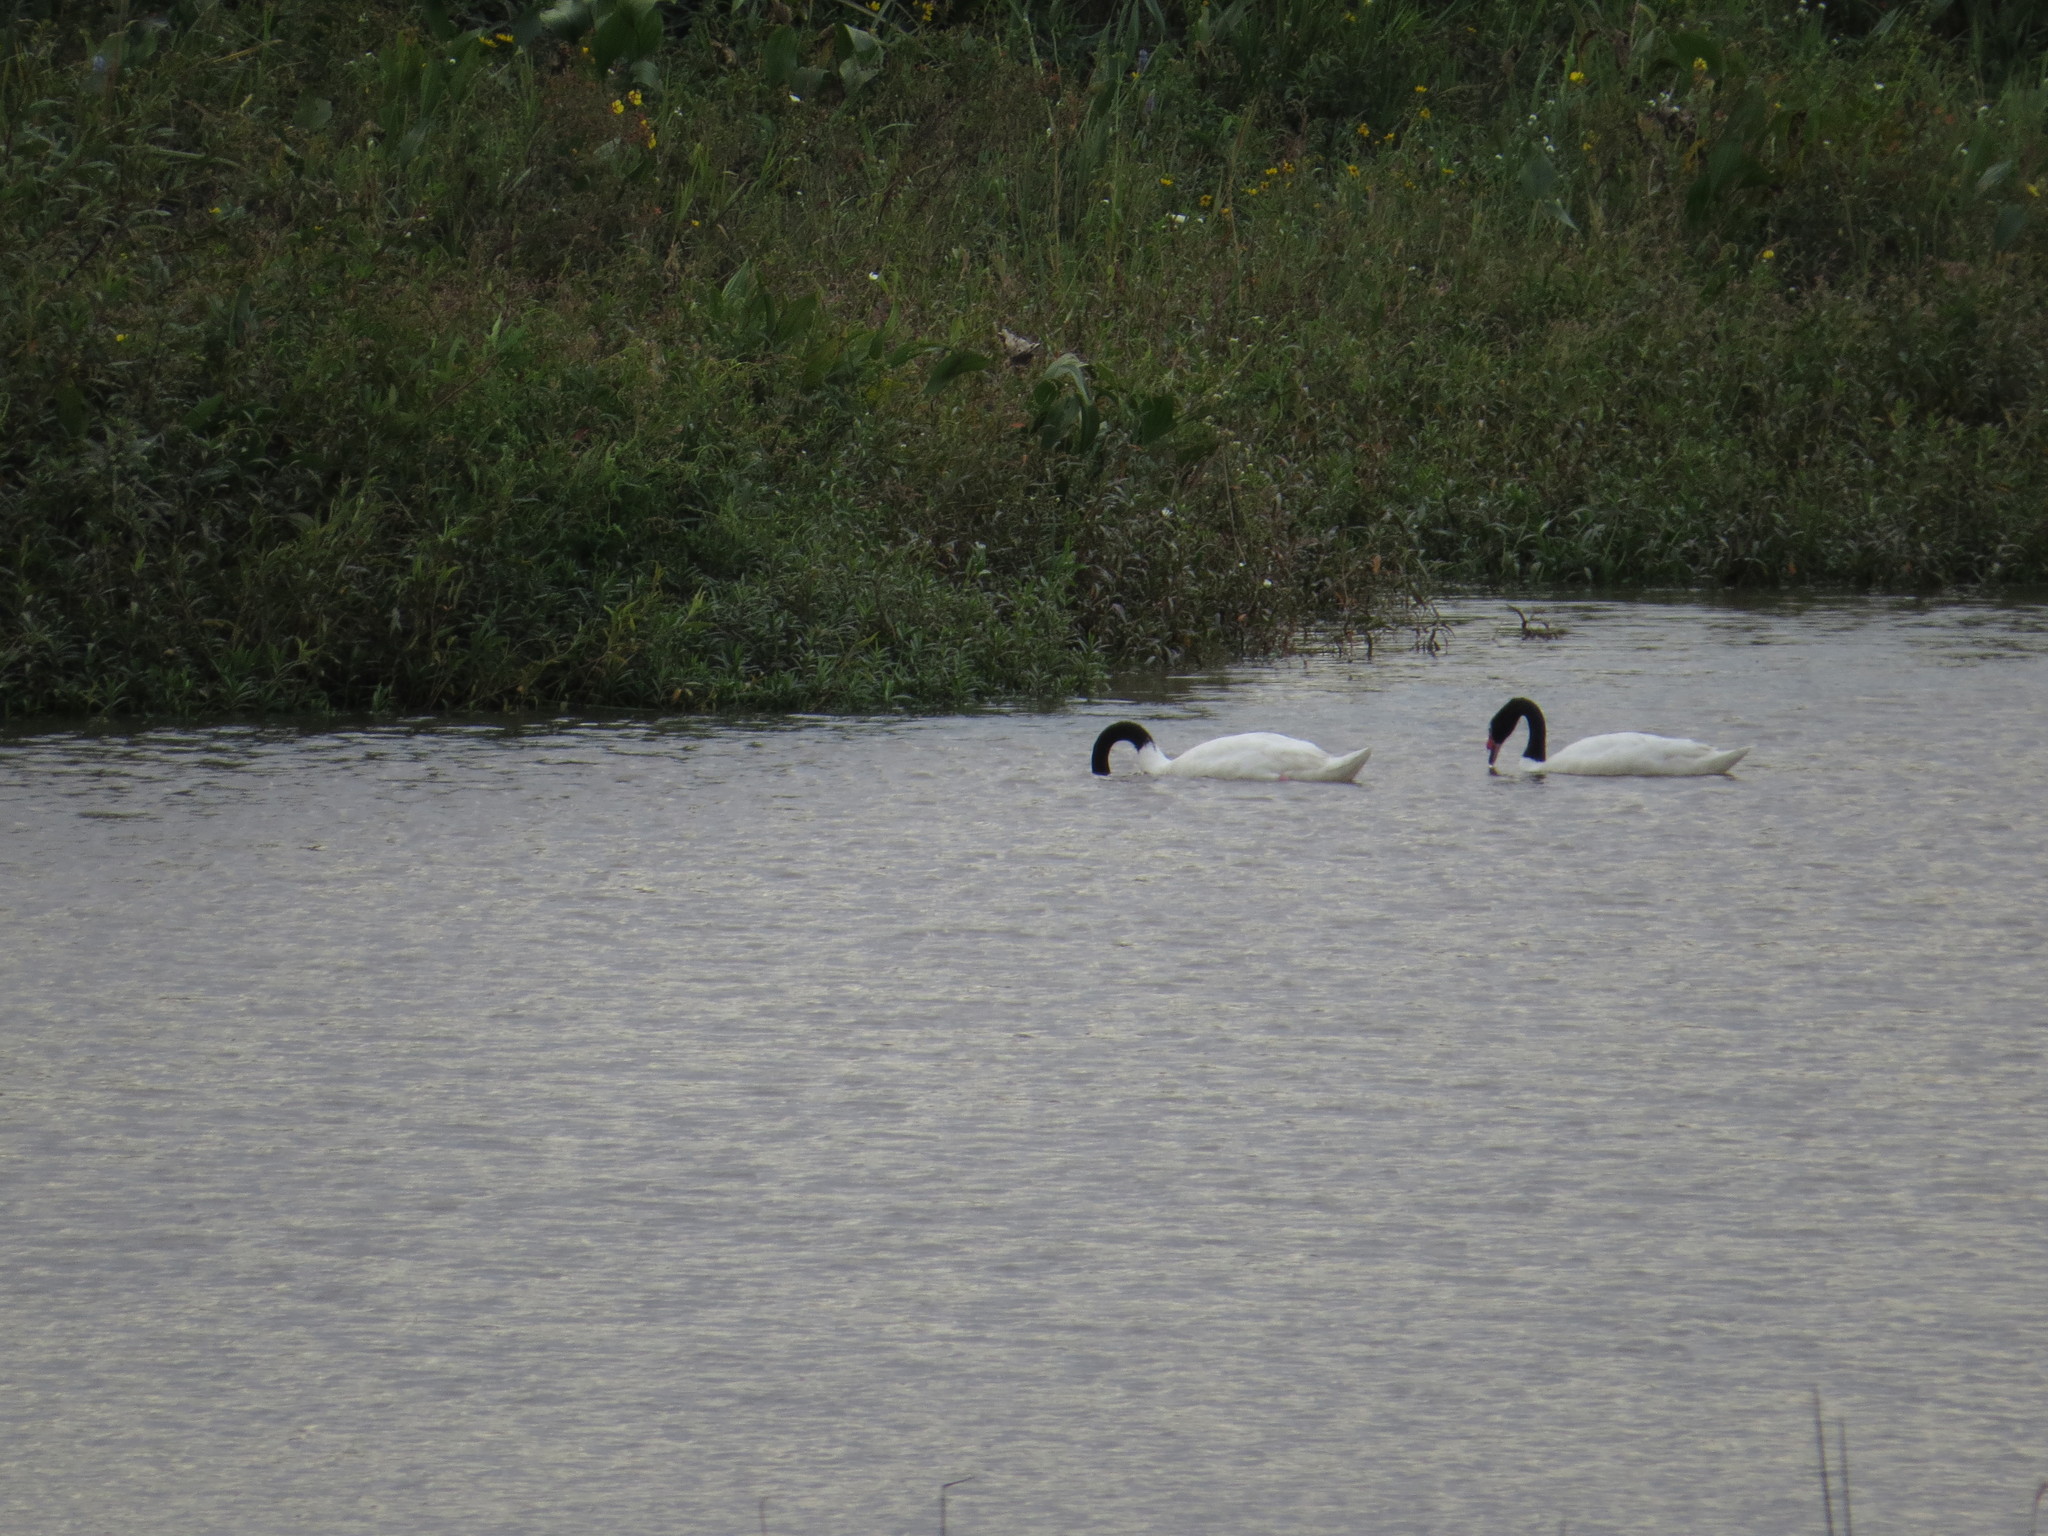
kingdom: Animalia
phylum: Chordata
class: Aves
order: Anseriformes
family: Anatidae
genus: Cygnus
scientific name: Cygnus melancoryphus
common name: Black-necked swan
